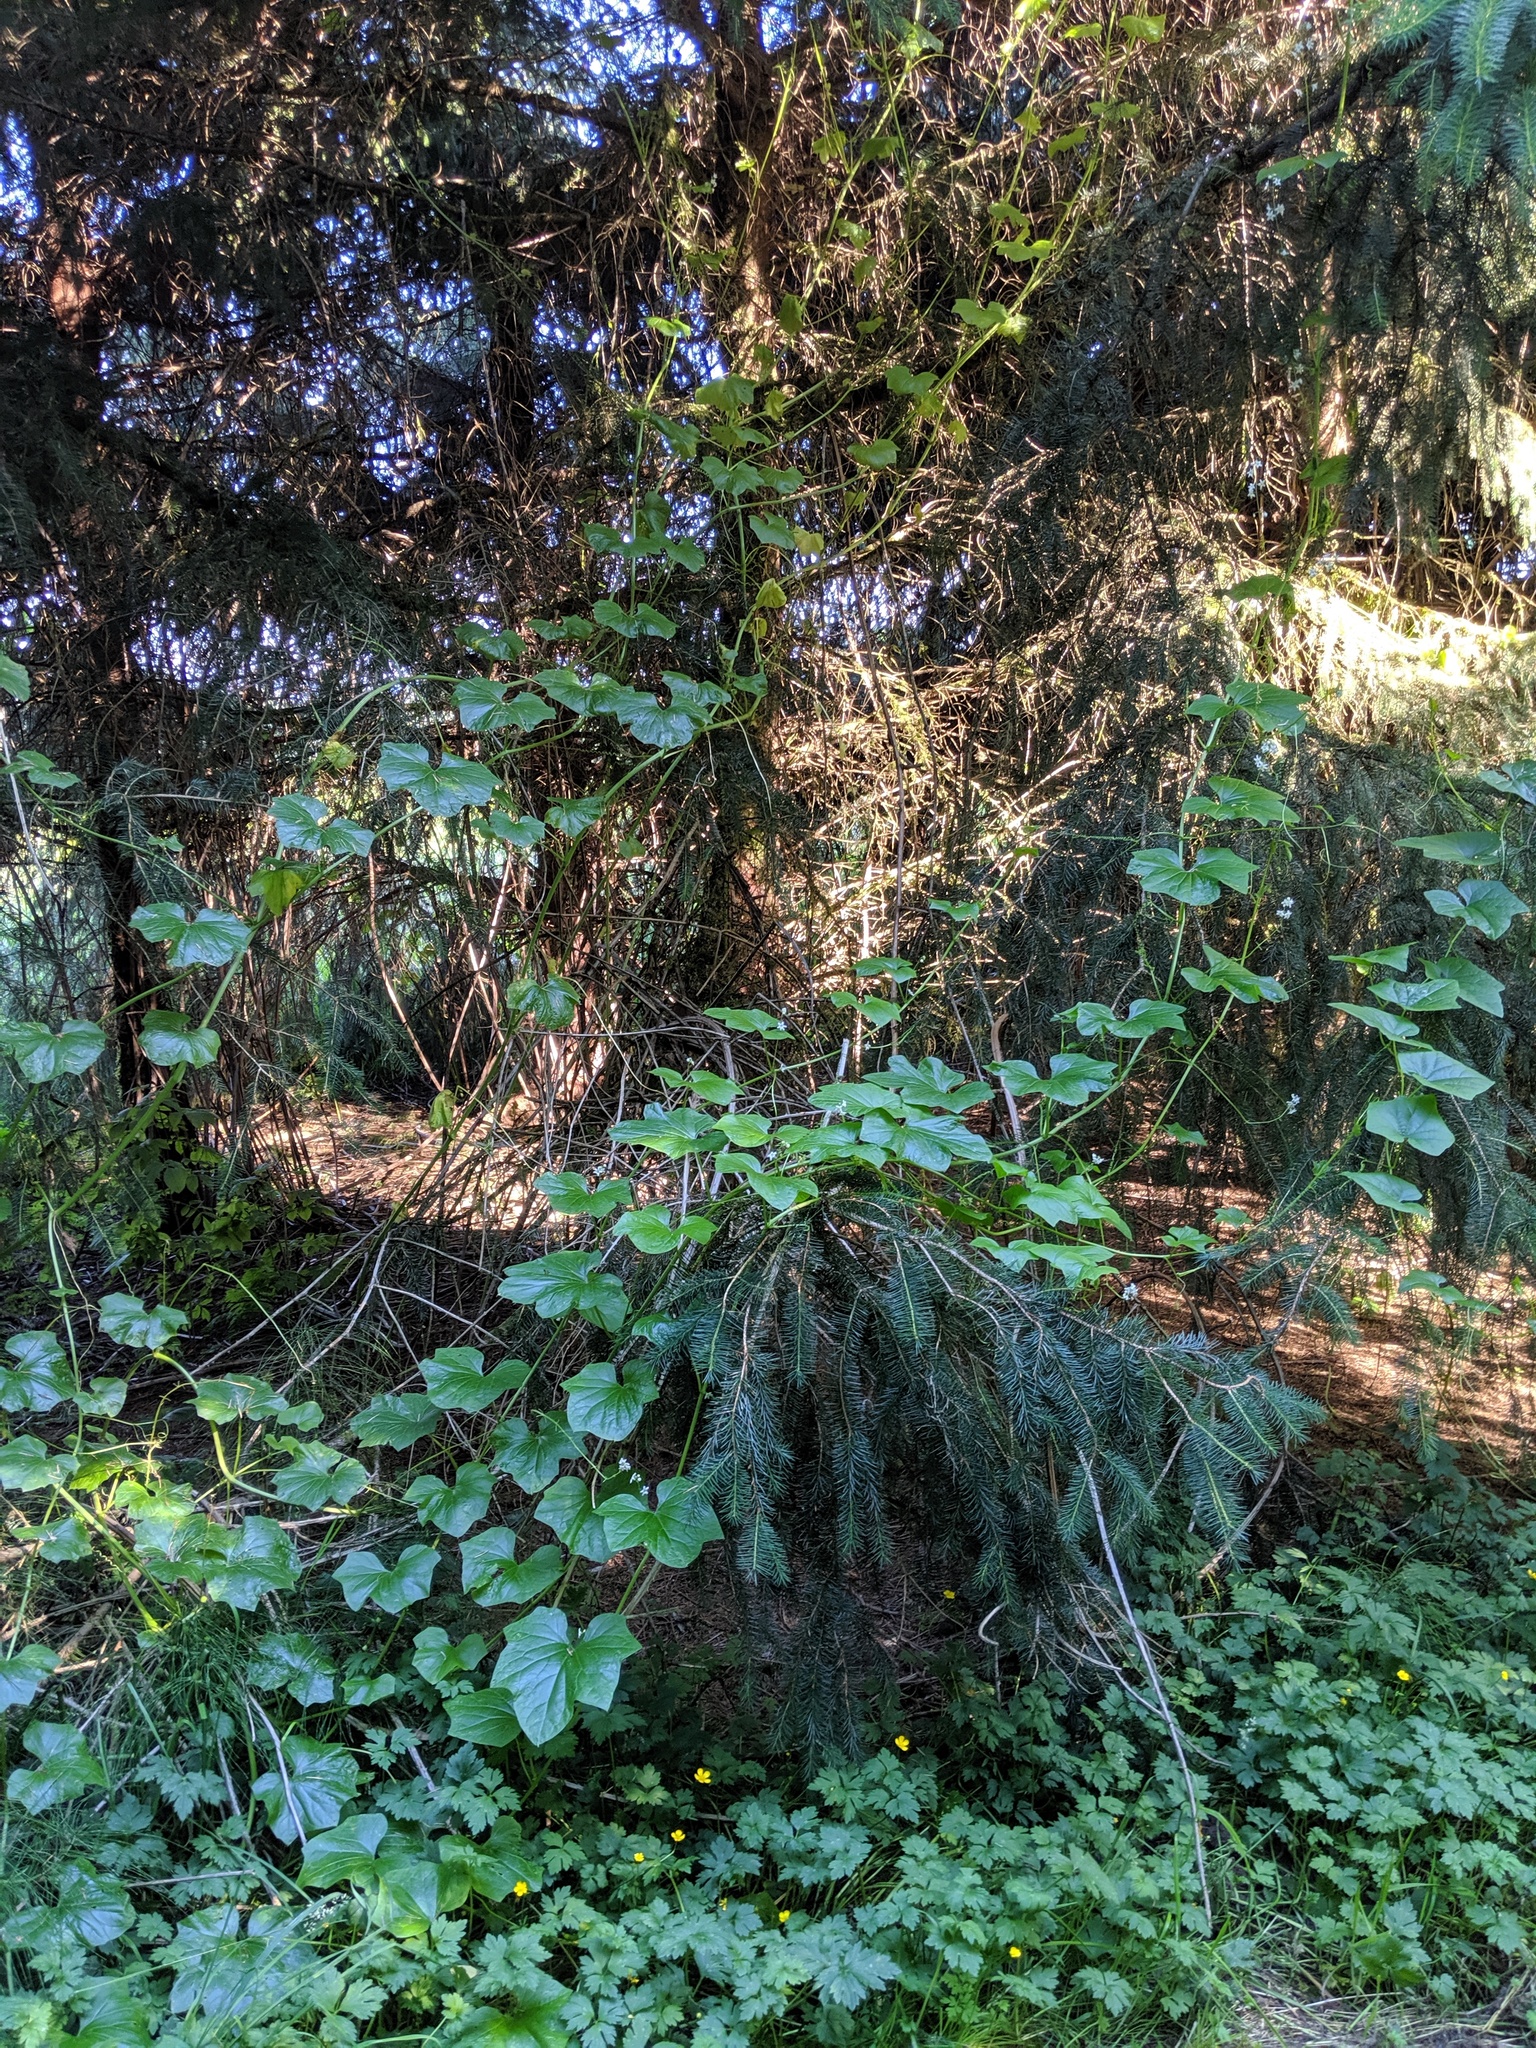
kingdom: Plantae
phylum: Tracheophyta
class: Magnoliopsida
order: Cucurbitales
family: Cucurbitaceae
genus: Marah
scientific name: Marah oregana
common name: Coastal manroot
